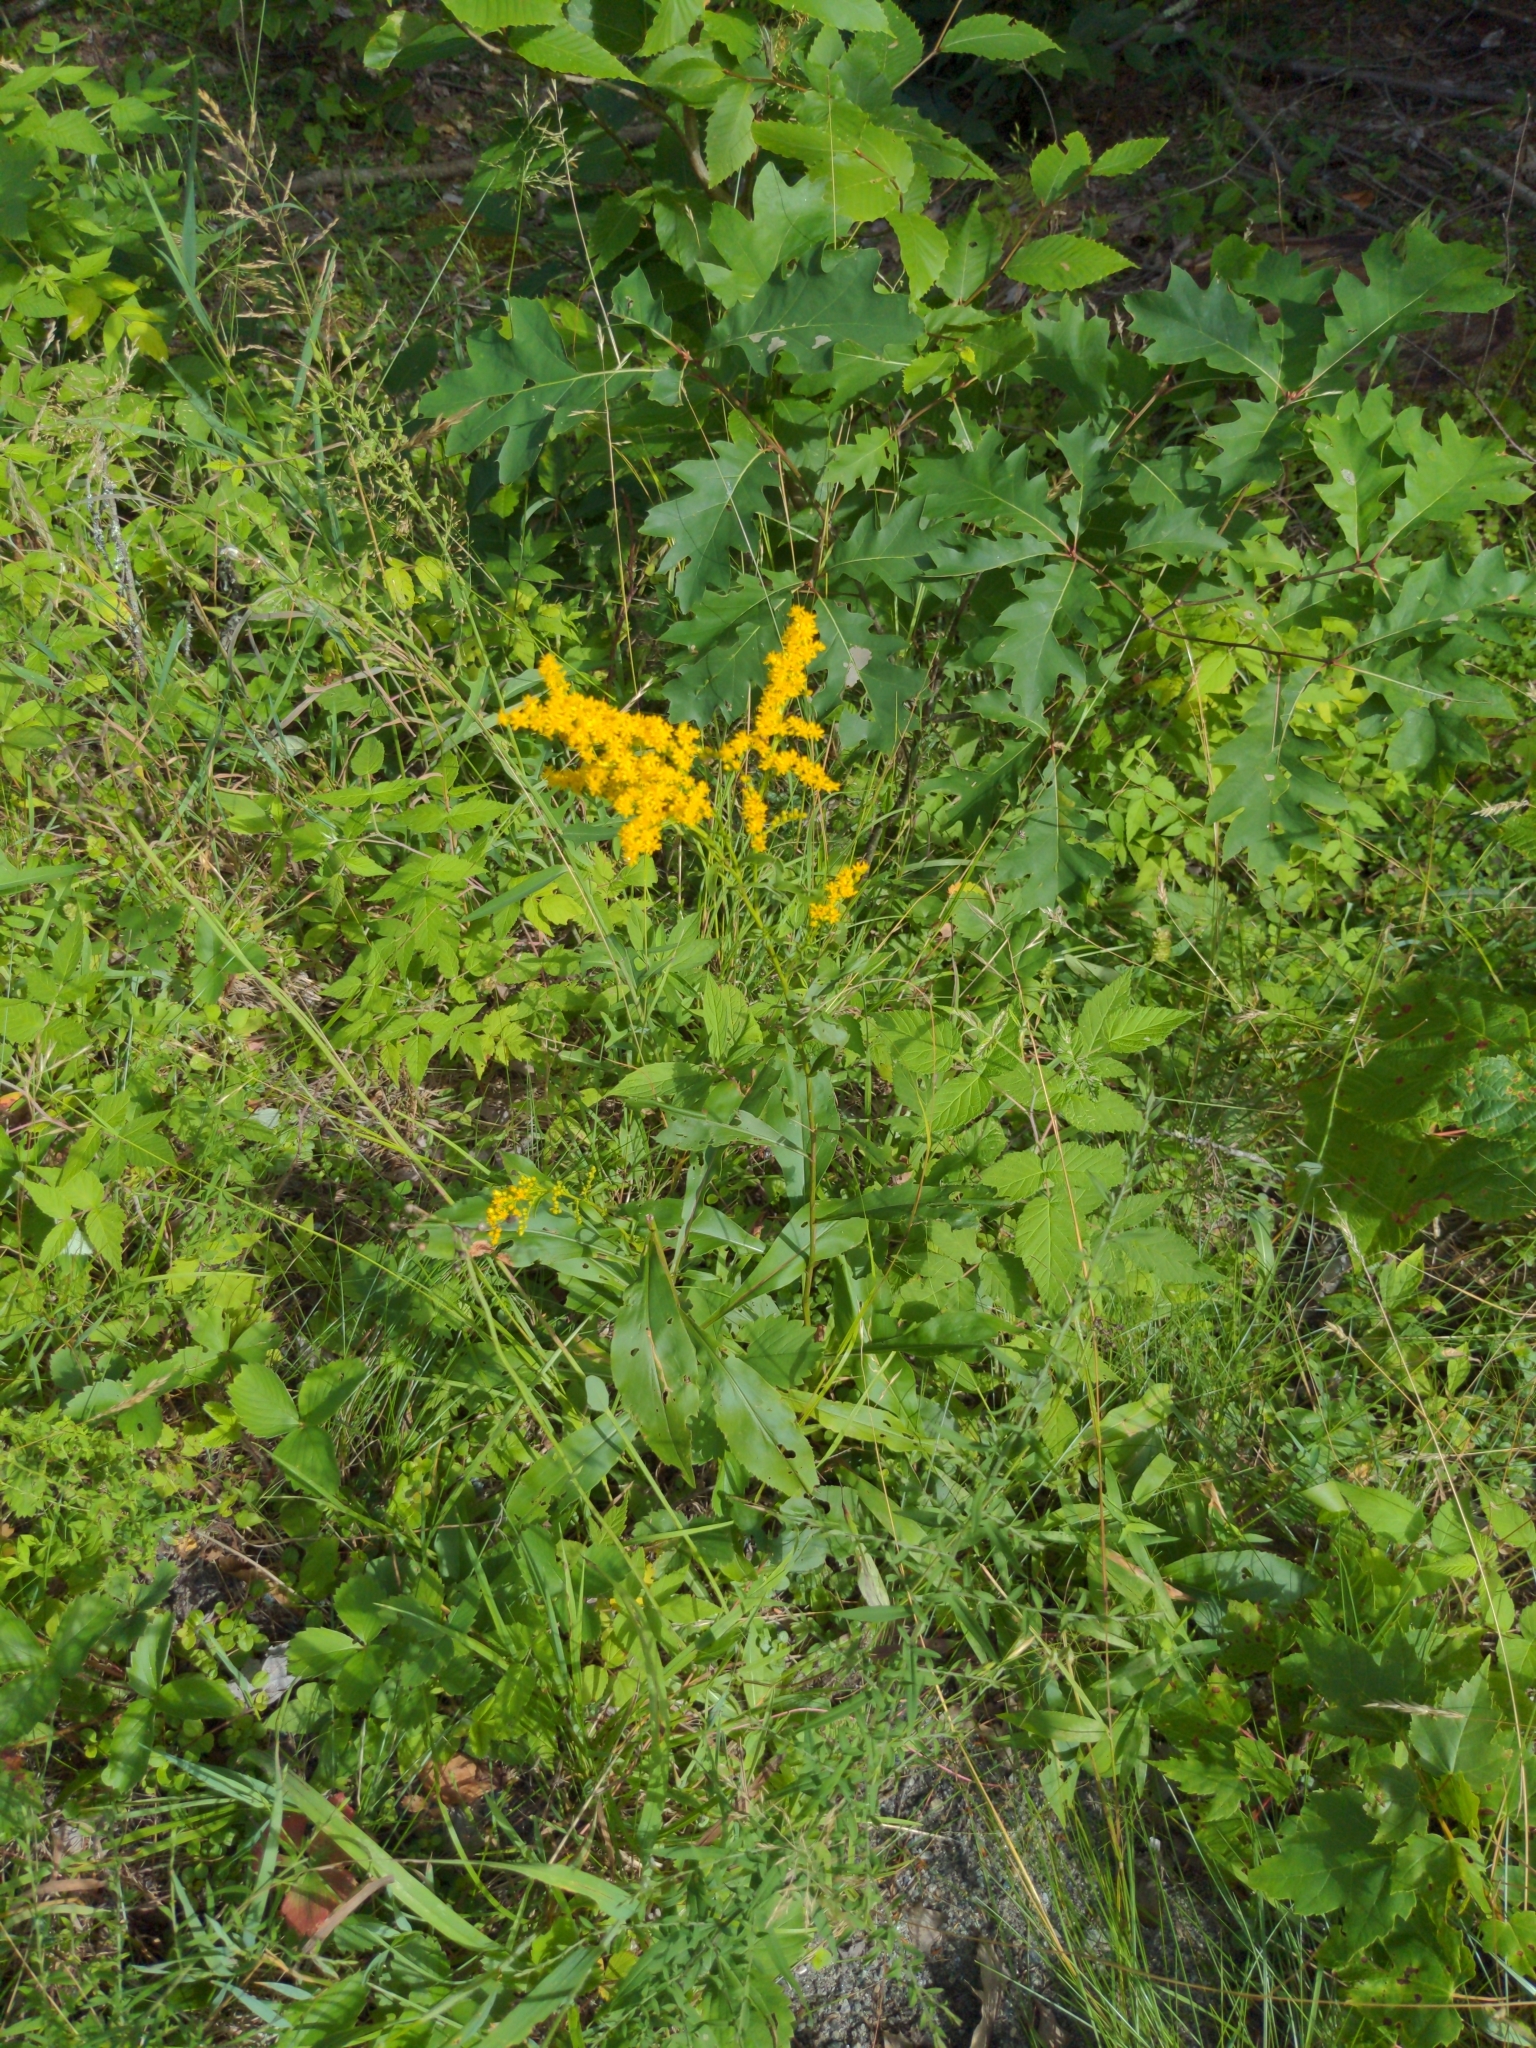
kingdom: Plantae
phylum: Tracheophyta
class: Magnoliopsida
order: Asterales
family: Asteraceae
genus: Solidago
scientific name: Solidago juncea
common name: Early goldenrod
